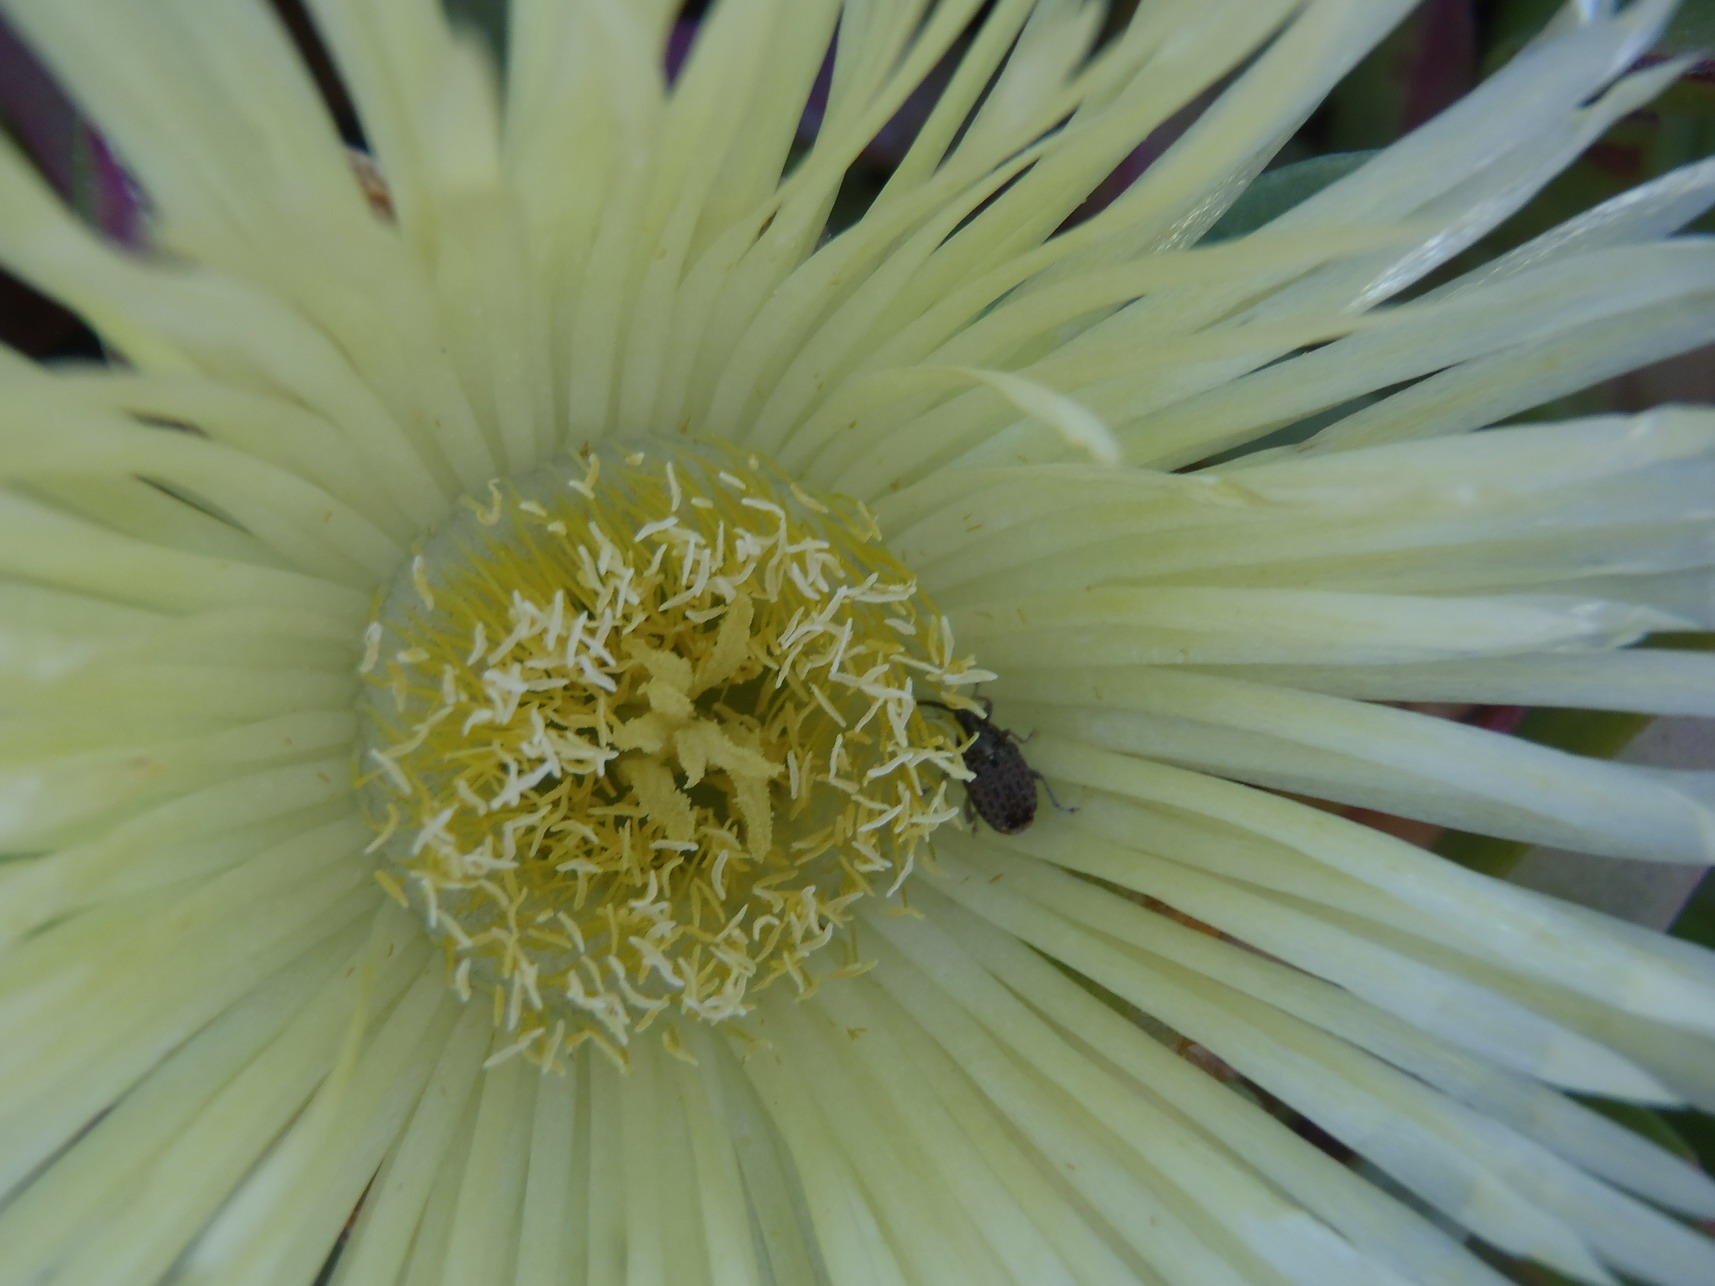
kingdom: Plantae
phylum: Tracheophyta
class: Magnoliopsida
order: Caryophyllales
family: Aizoaceae
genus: Carpobrotus
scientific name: Carpobrotus edulis
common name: Hottentot-fig
